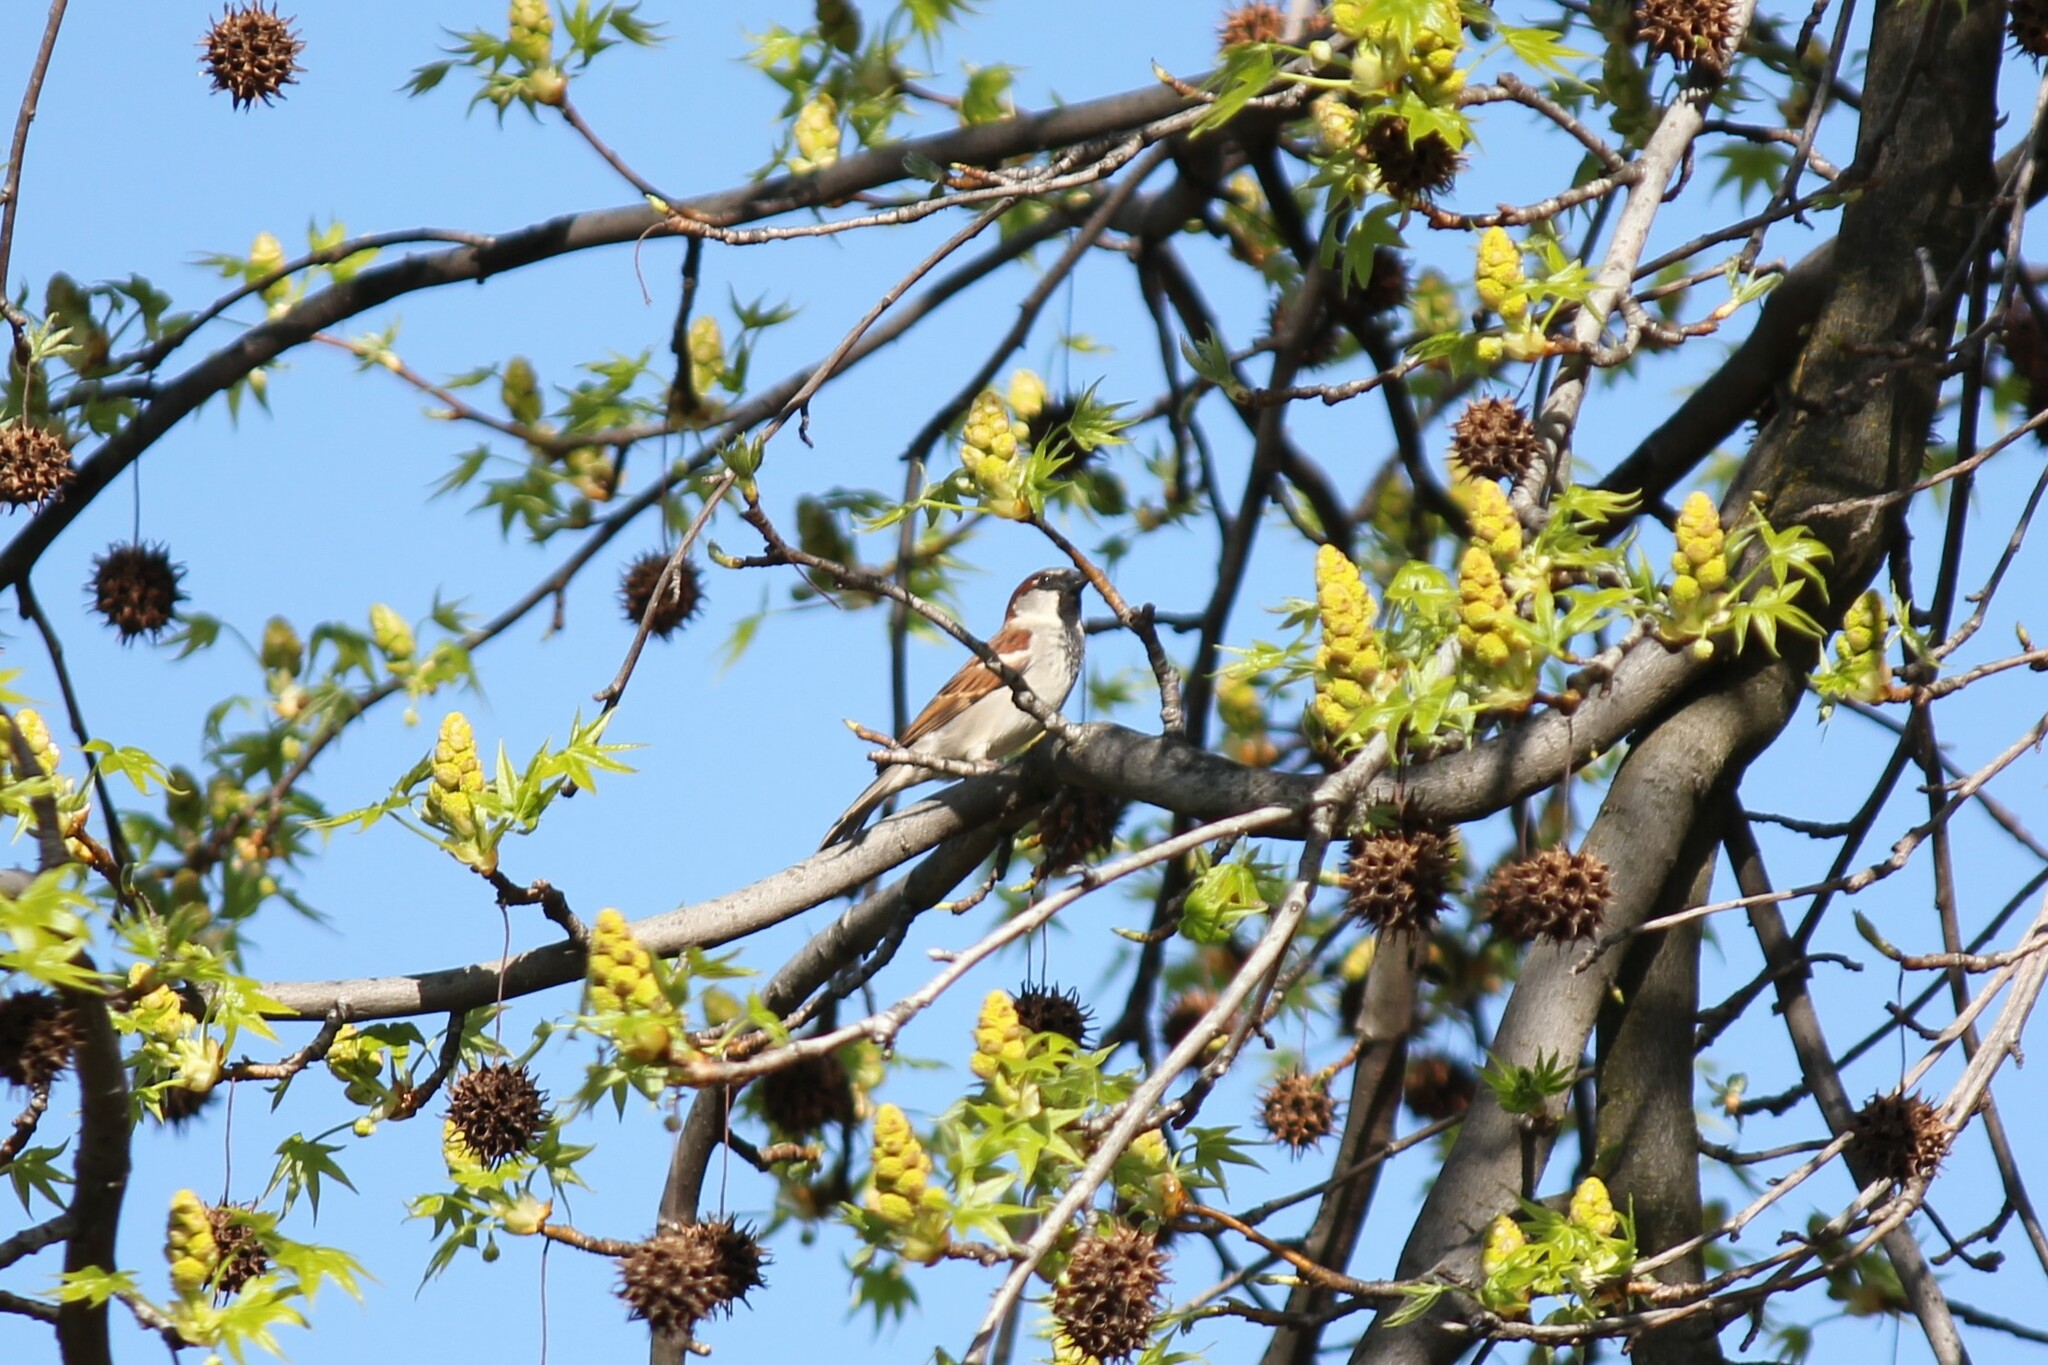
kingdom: Animalia
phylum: Chordata
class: Aves
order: Passeriformes
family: Passeridae
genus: Passer
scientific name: Passer domesticus
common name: House sparrow
